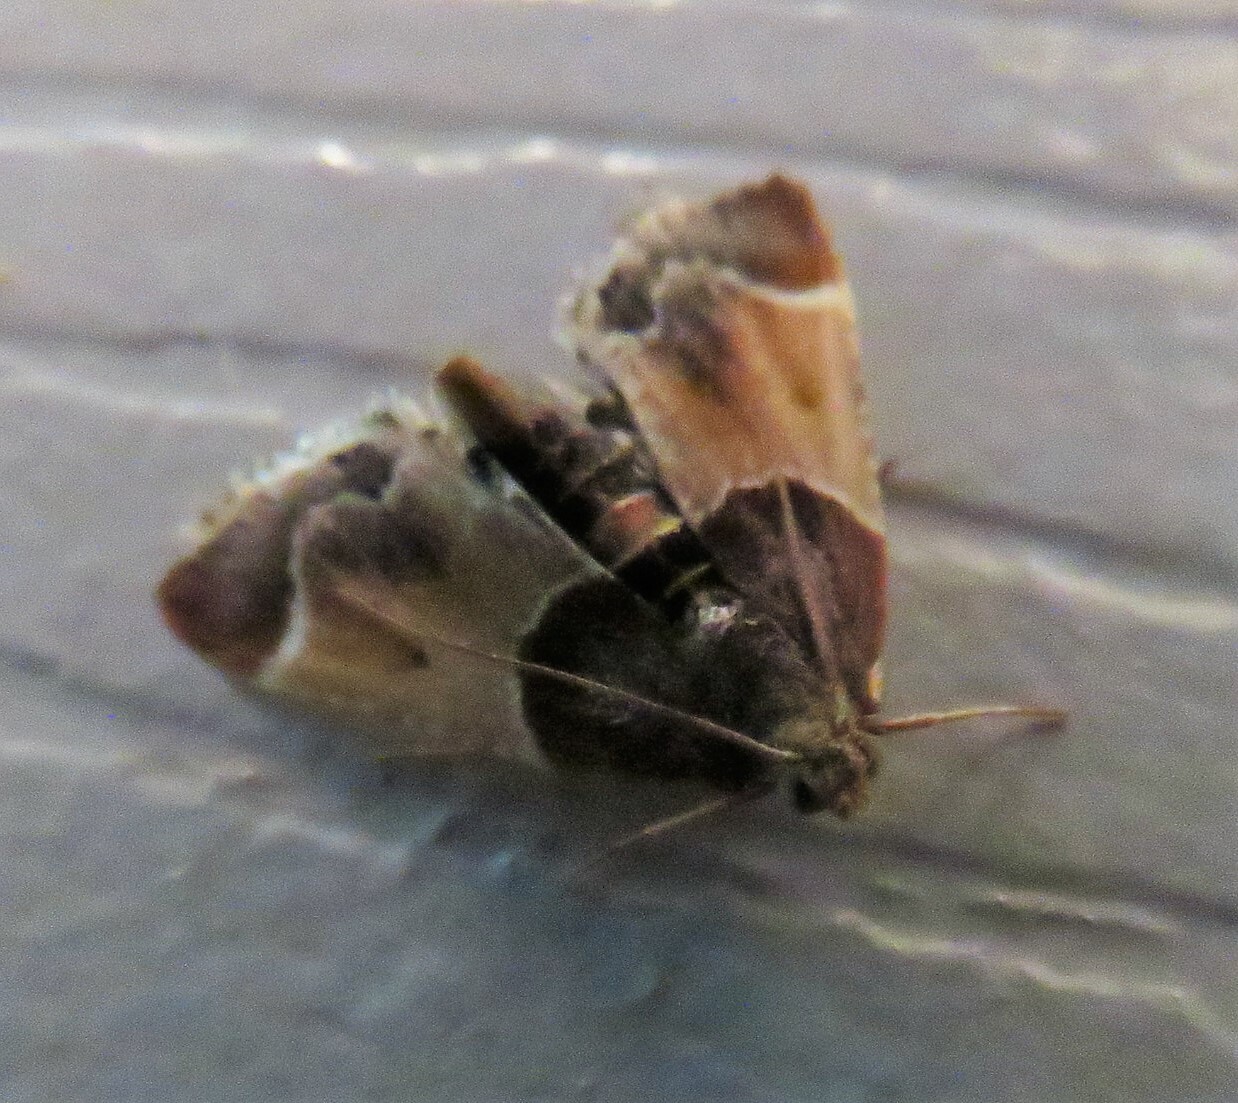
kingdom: Animalia
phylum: Arthropoda
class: Insecta
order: Lepidoptera
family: Pyralidae
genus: Pyralis
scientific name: Pyralis farinalis
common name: Meal moth
